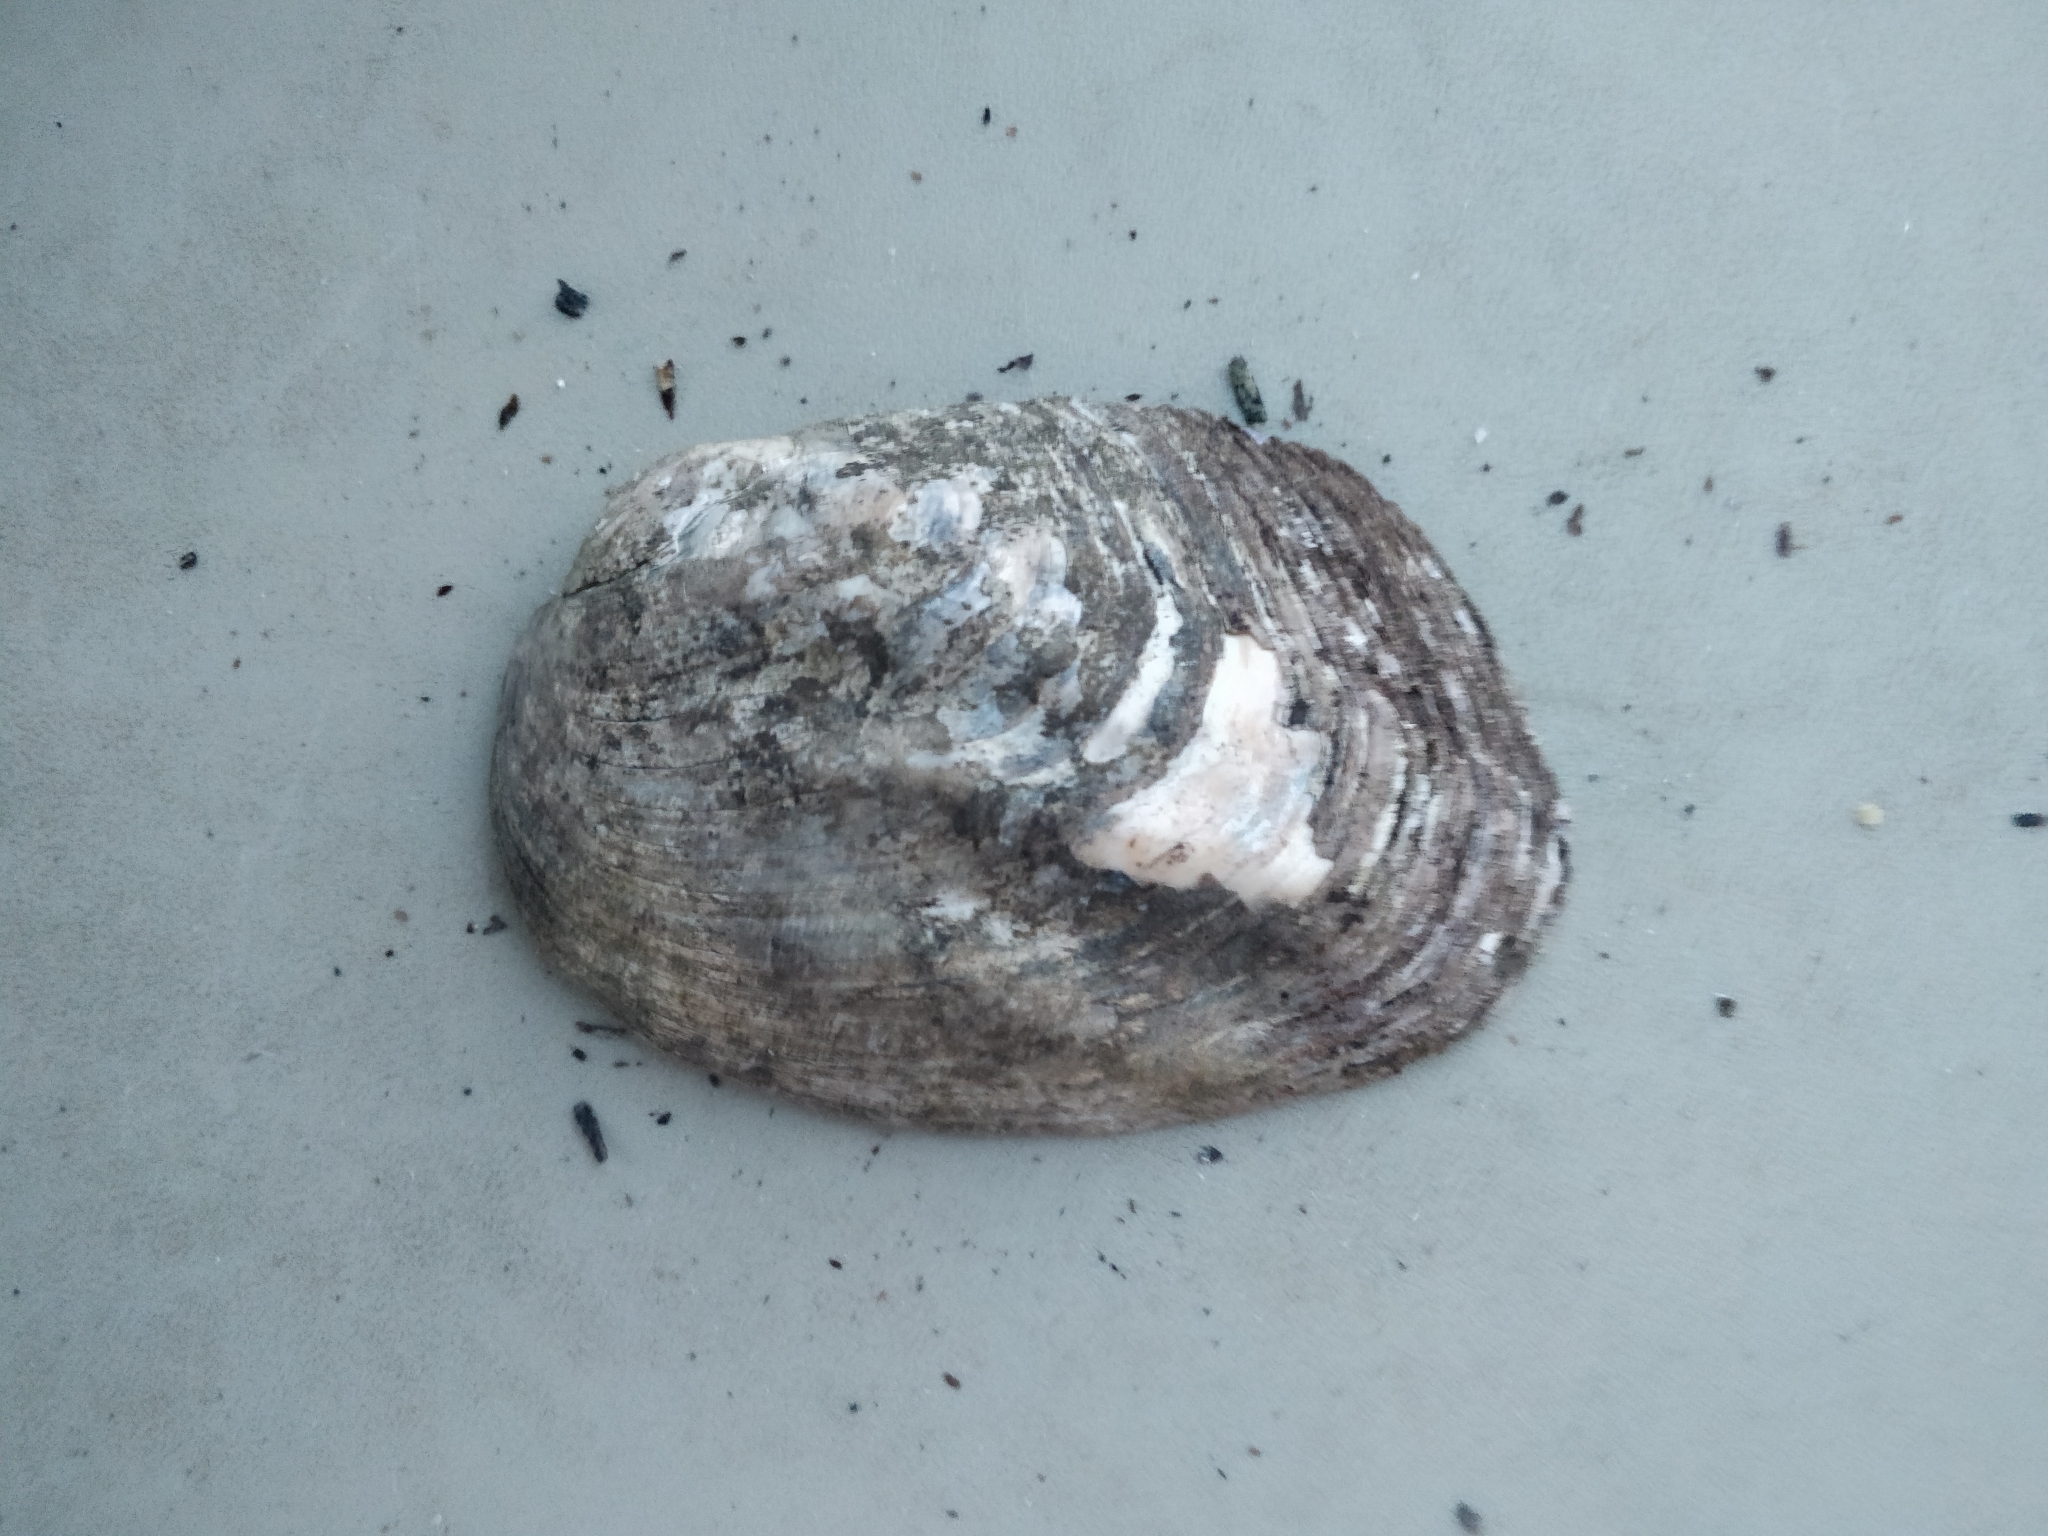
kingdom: Animalia
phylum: Mollusca
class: Bivalvia
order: Unionida
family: Unionidae
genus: Amblema
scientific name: Amblema plicata
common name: Threeridge
